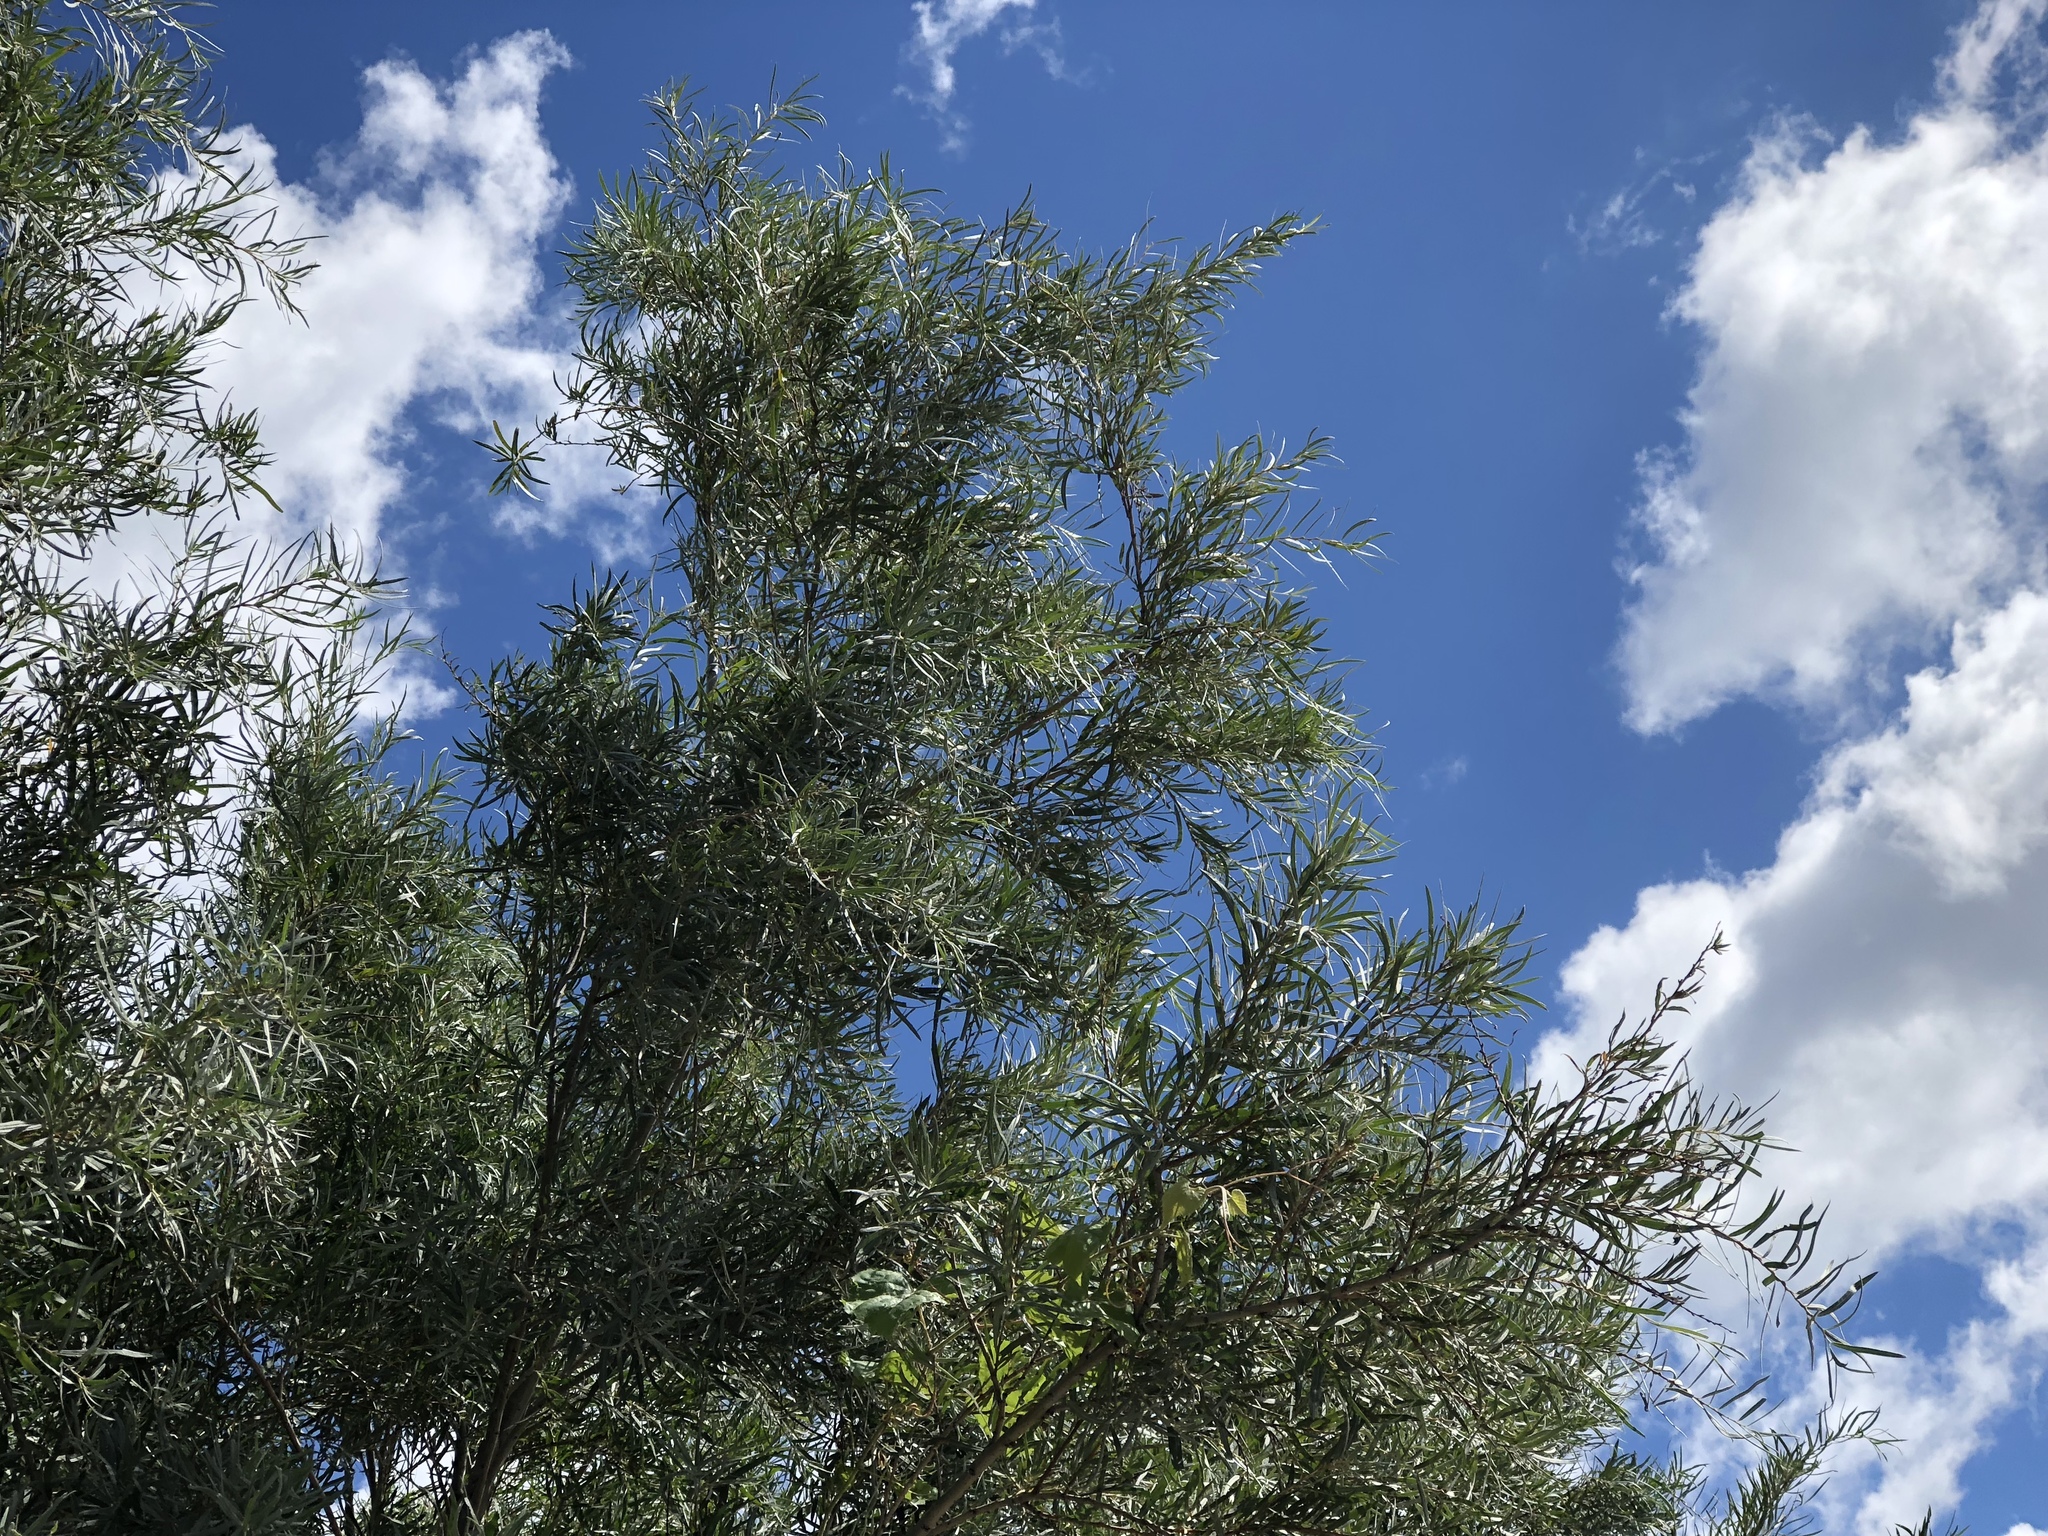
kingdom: Plantae
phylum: Tracheophyta
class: Magnoliopsida
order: Malpighiales
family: Salicaceae
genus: Salix
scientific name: Salix exigua
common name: Coyote willow
